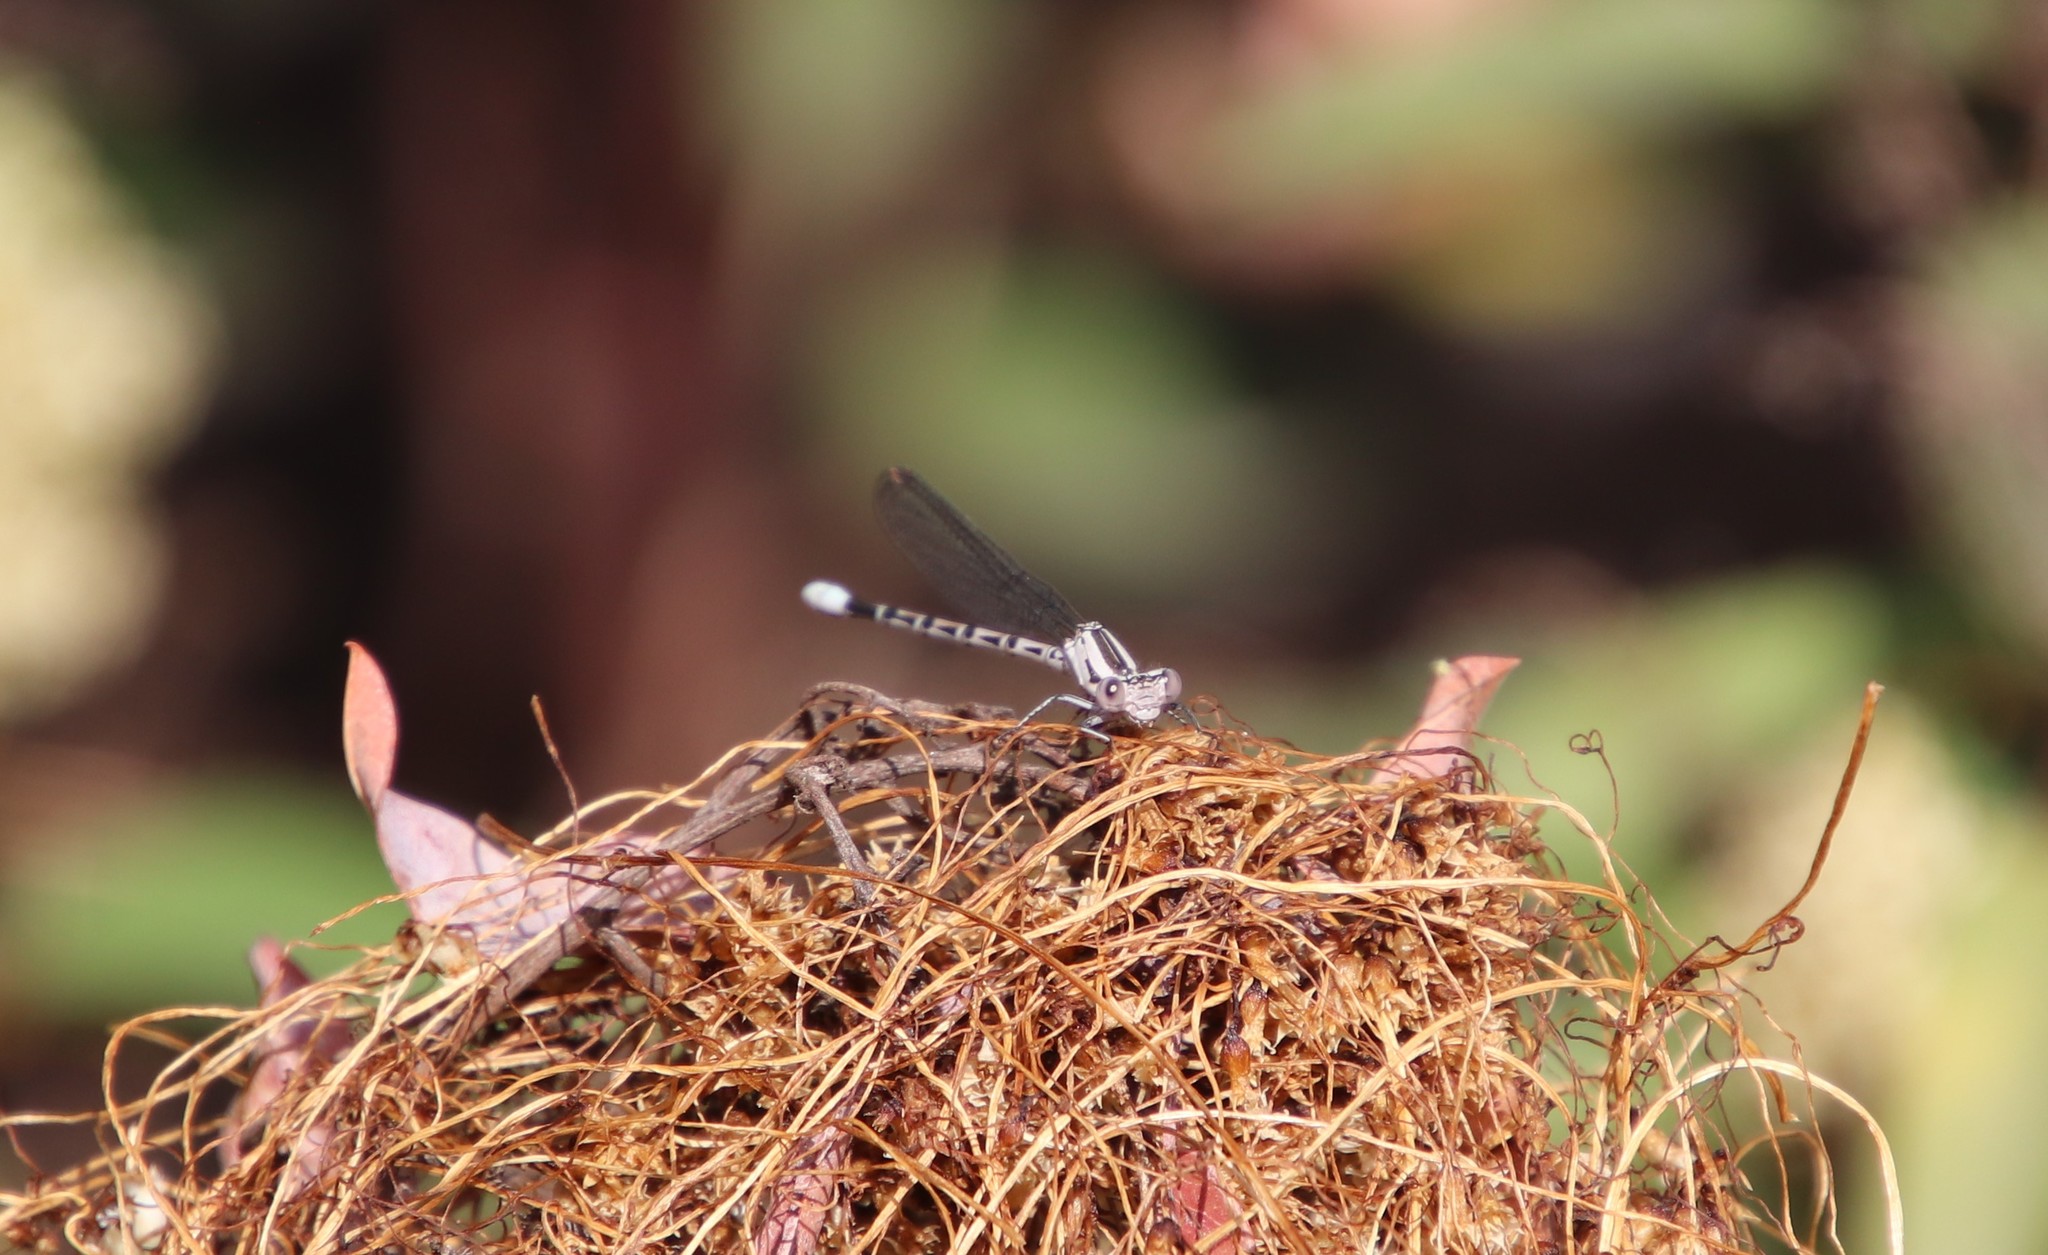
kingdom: Animalia
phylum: Arthropoda
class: Insecta
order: Odonata
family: Coenagrionidae
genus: Argia
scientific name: Argia vivida
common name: Vivid dancer
